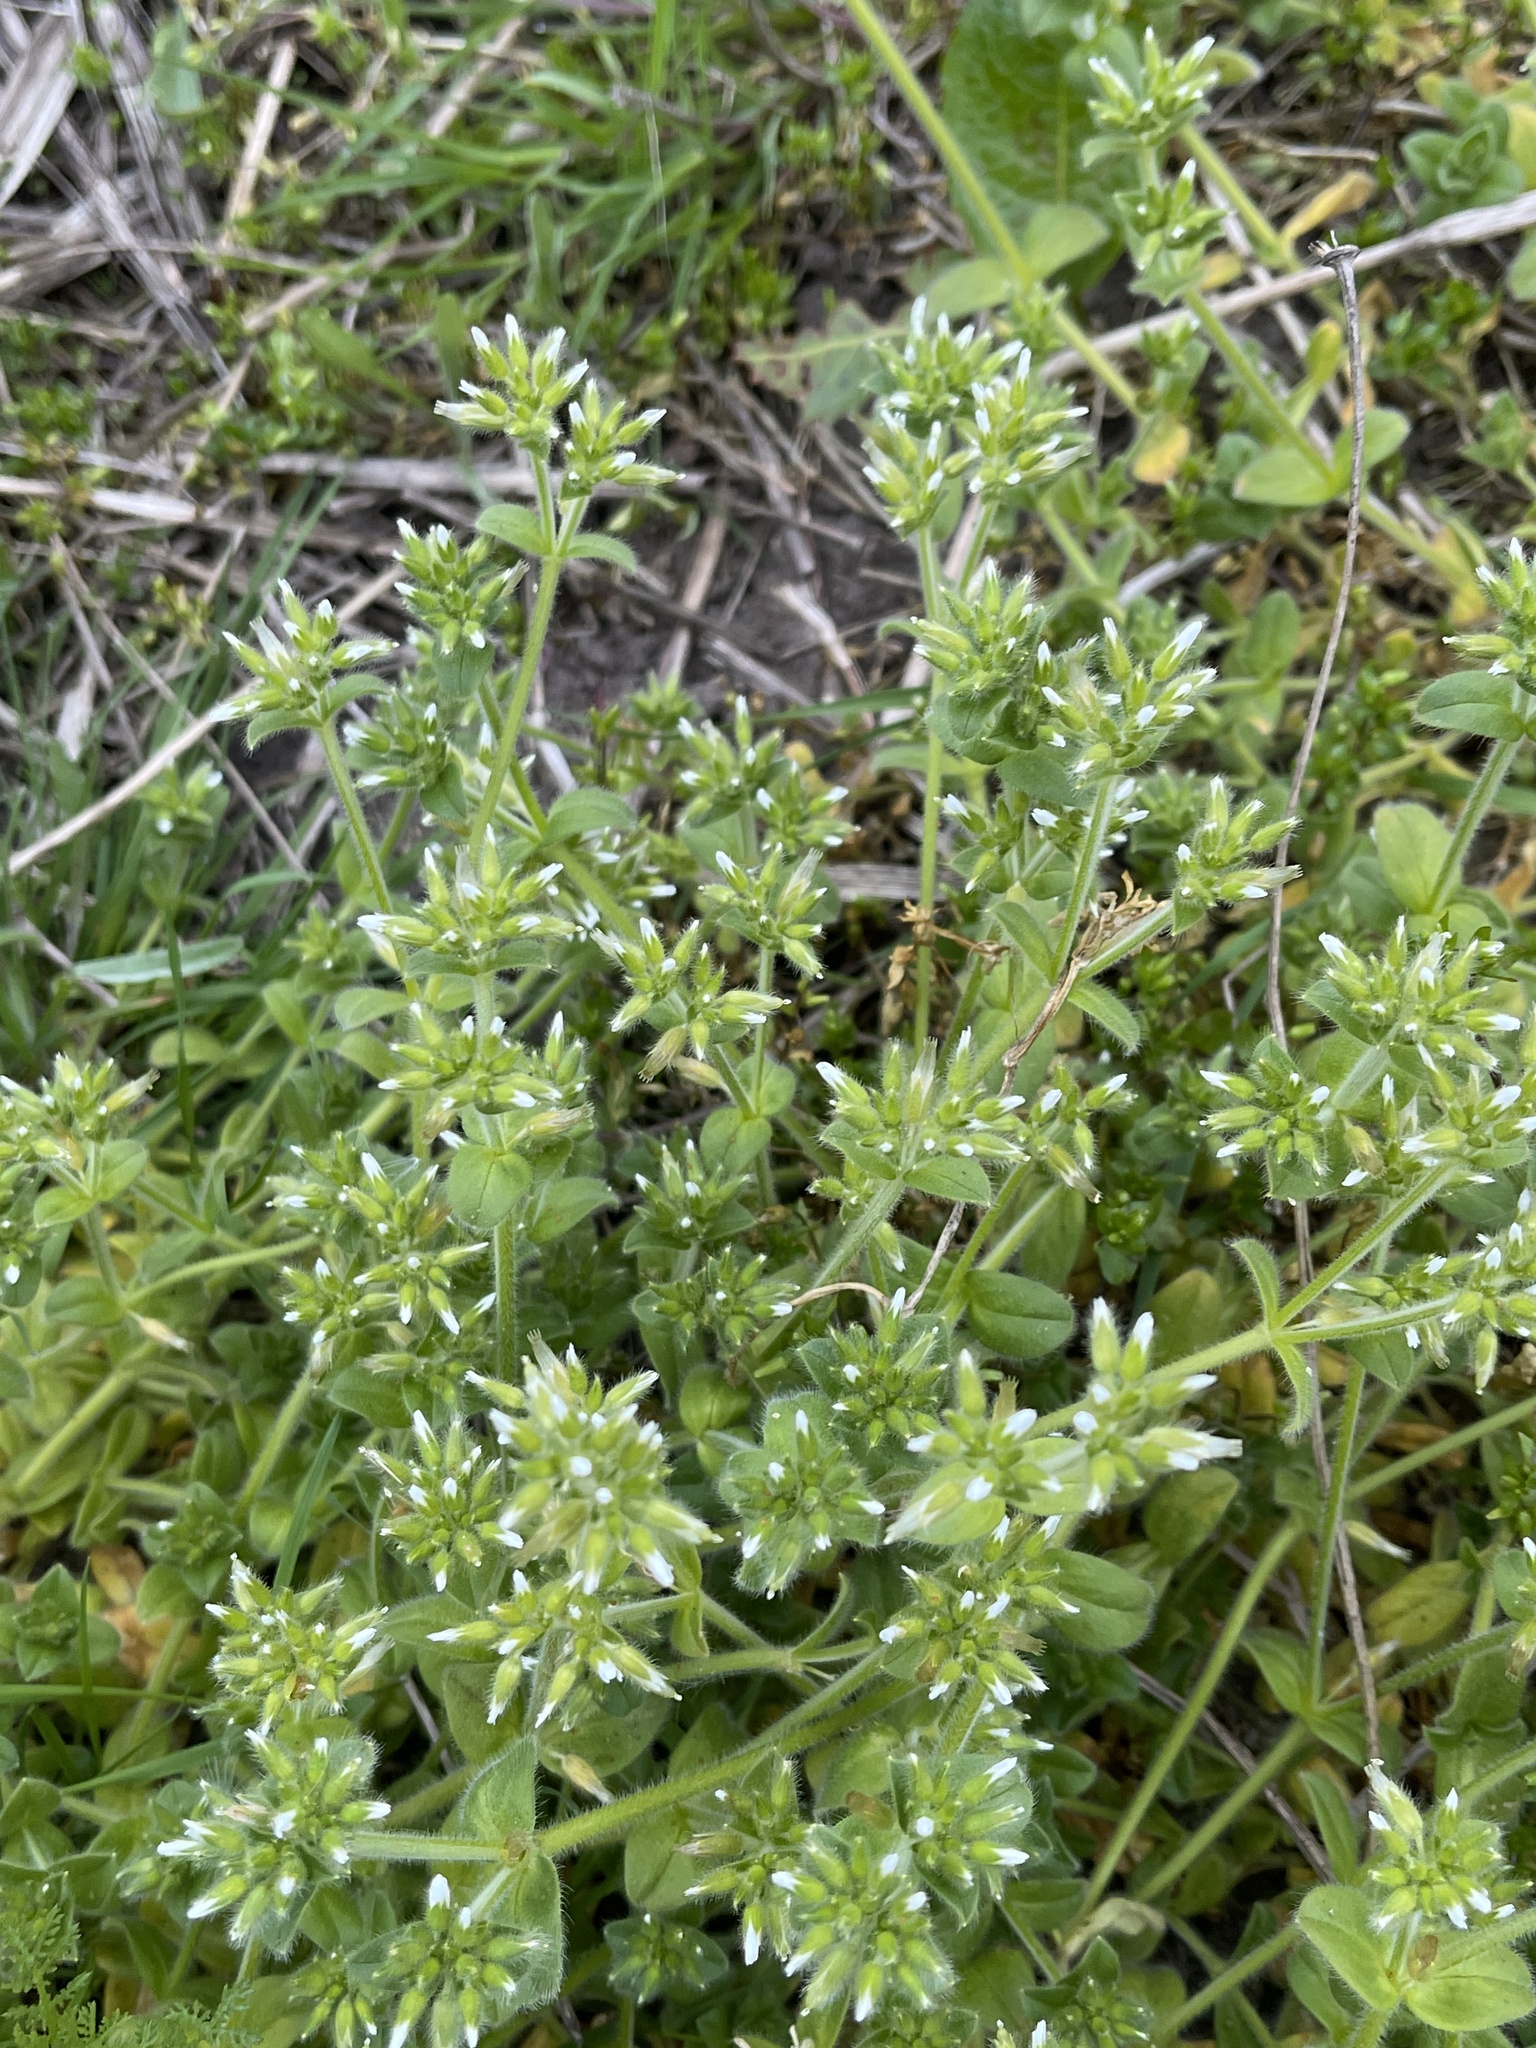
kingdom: Plantae
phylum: Tracheophyta
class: Magnoliopsida
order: Caryophyllales
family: Caryophyllaceae
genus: Cerastium
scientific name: Cerastium glomeratum
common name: Sticky chickweed
